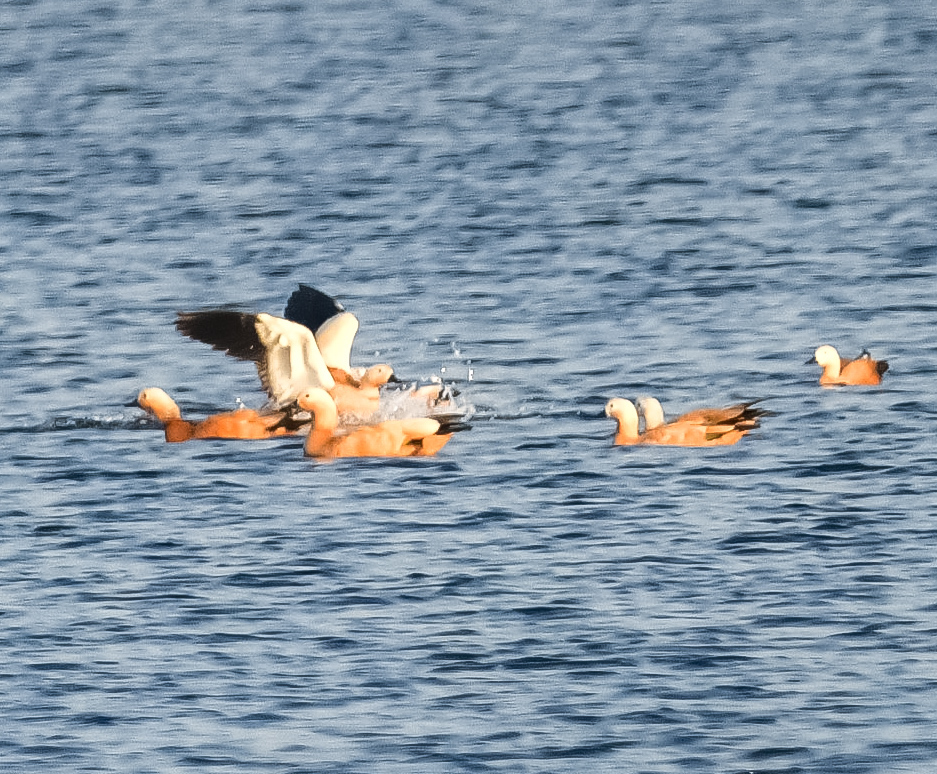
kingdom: Animalia
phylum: Chordata
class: Aves
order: Anseriformes
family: Anatidae
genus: Tadorna
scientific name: Tadorna ferruginea
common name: Ruddy shelduck
